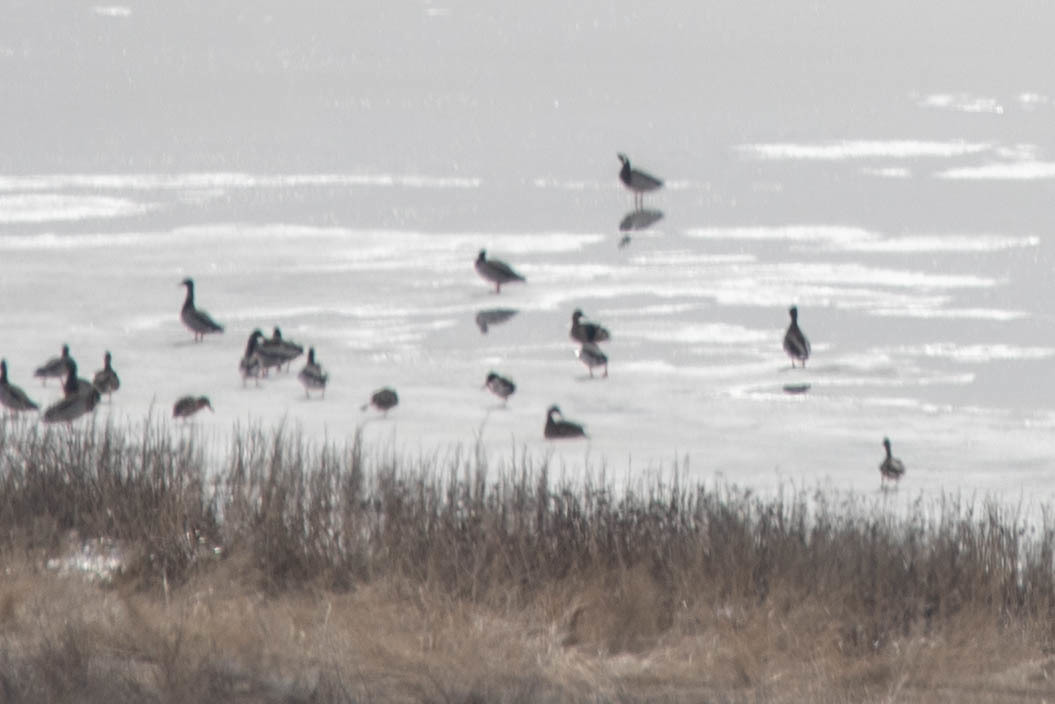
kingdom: Animalia
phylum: Chordata
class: Aves
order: Anseriformes
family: Anatidae
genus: Anas
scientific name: Anas platyrhynchos
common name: Mallard
